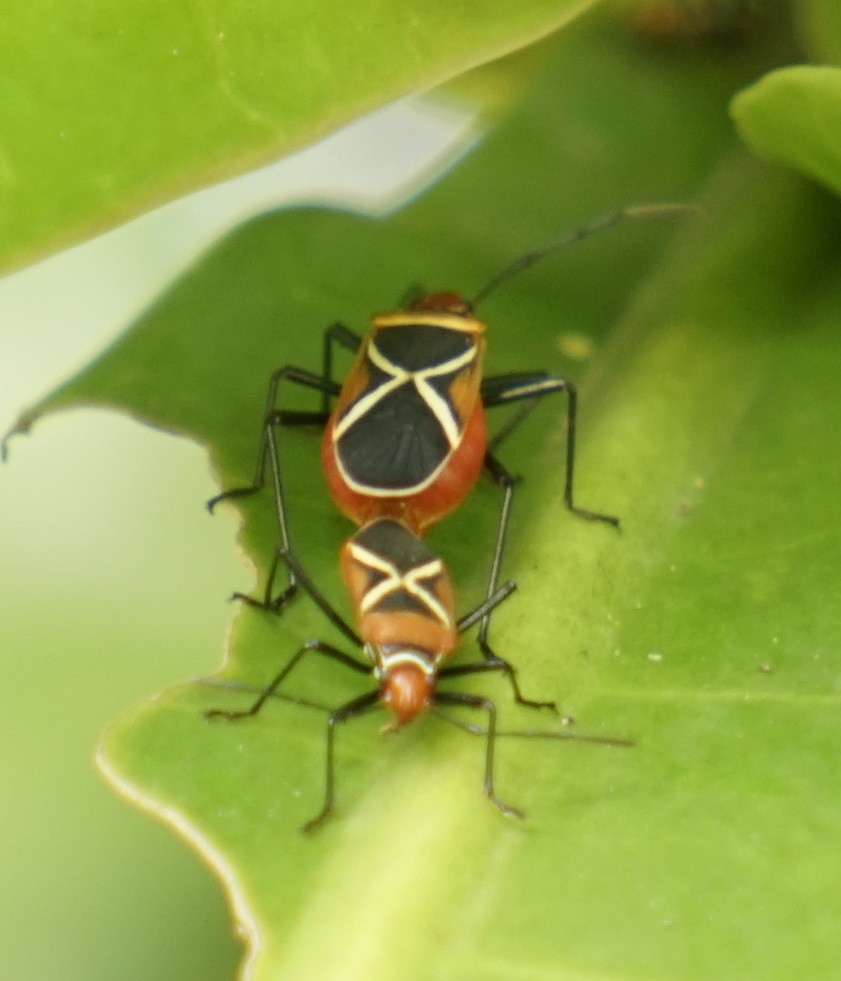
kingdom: Animalia
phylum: Arthropoda
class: Insecta
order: Hemiptera
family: Pyrrhocoridae
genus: Dysdercus
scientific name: Dysdercus decussatus
